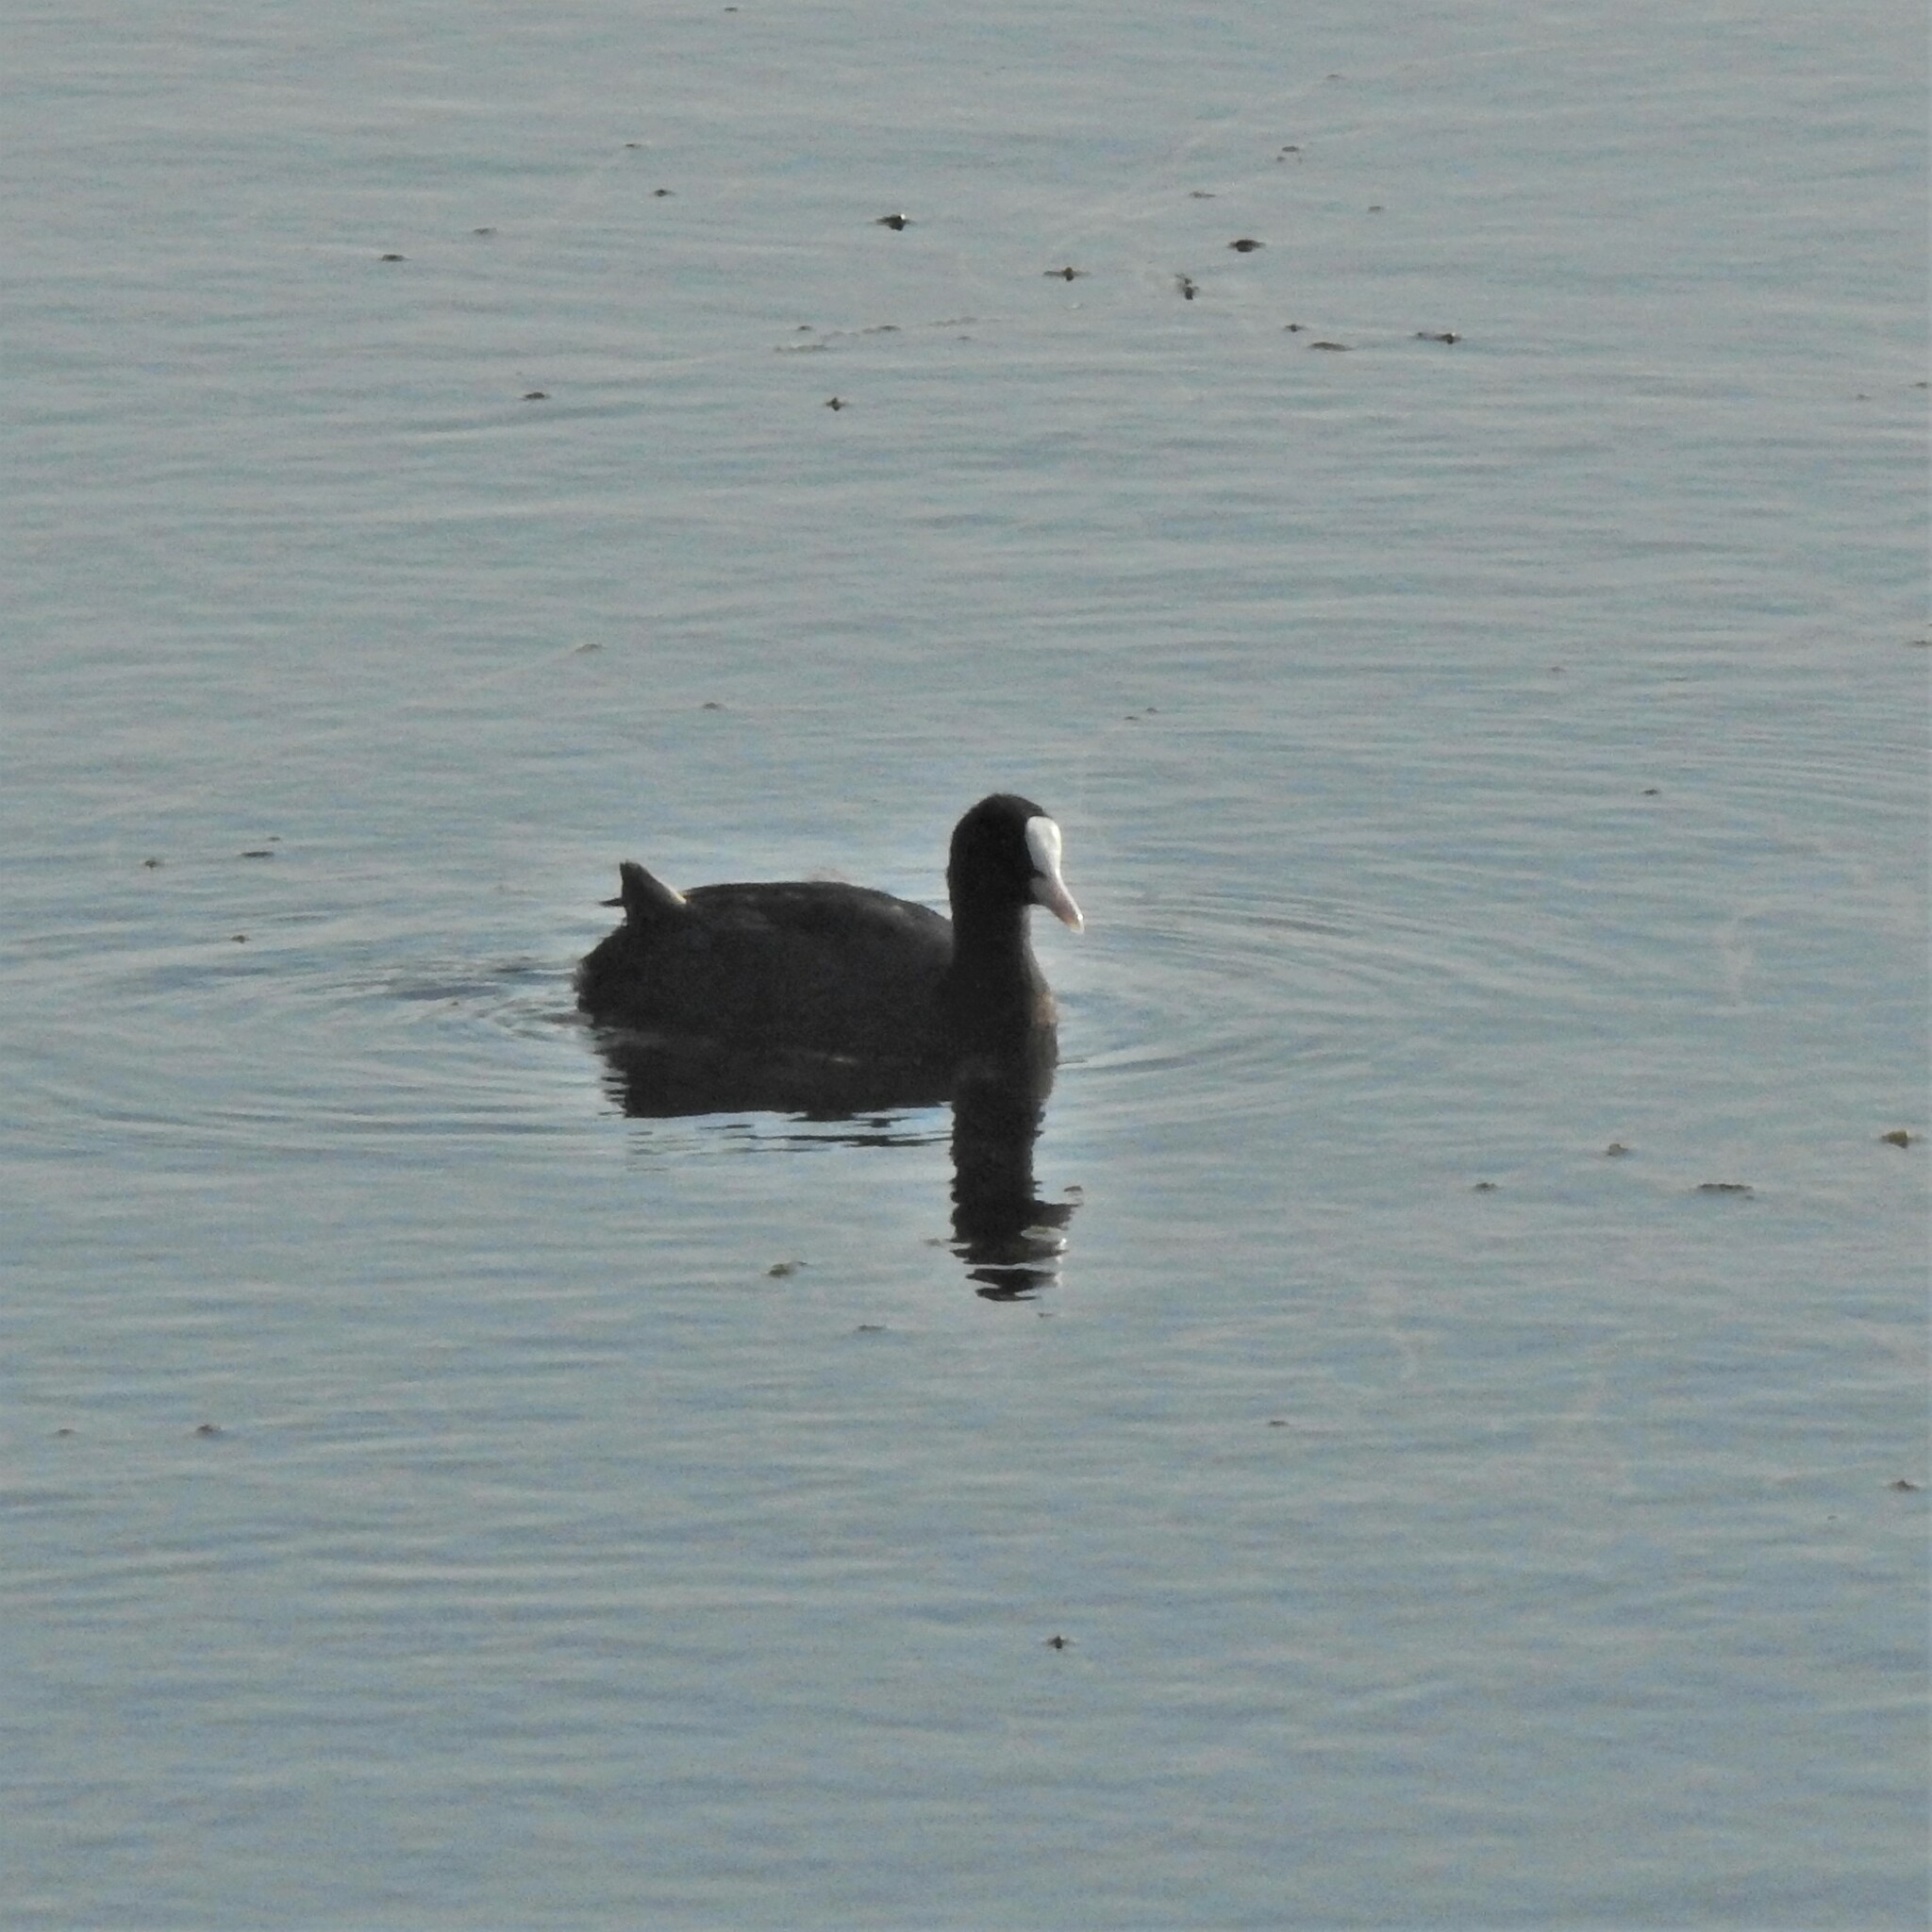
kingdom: Animalia
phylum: Chordata
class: Aves
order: Gruiformes
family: Rallidae
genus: Fulica
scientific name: Fulica atra
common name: Eurasian coot
